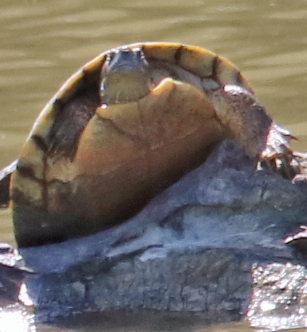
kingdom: Animalia
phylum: Chordata
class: Testudines
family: Emydidae
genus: Pseudemys
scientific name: Pseudemys texana
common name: Texas river cooter
